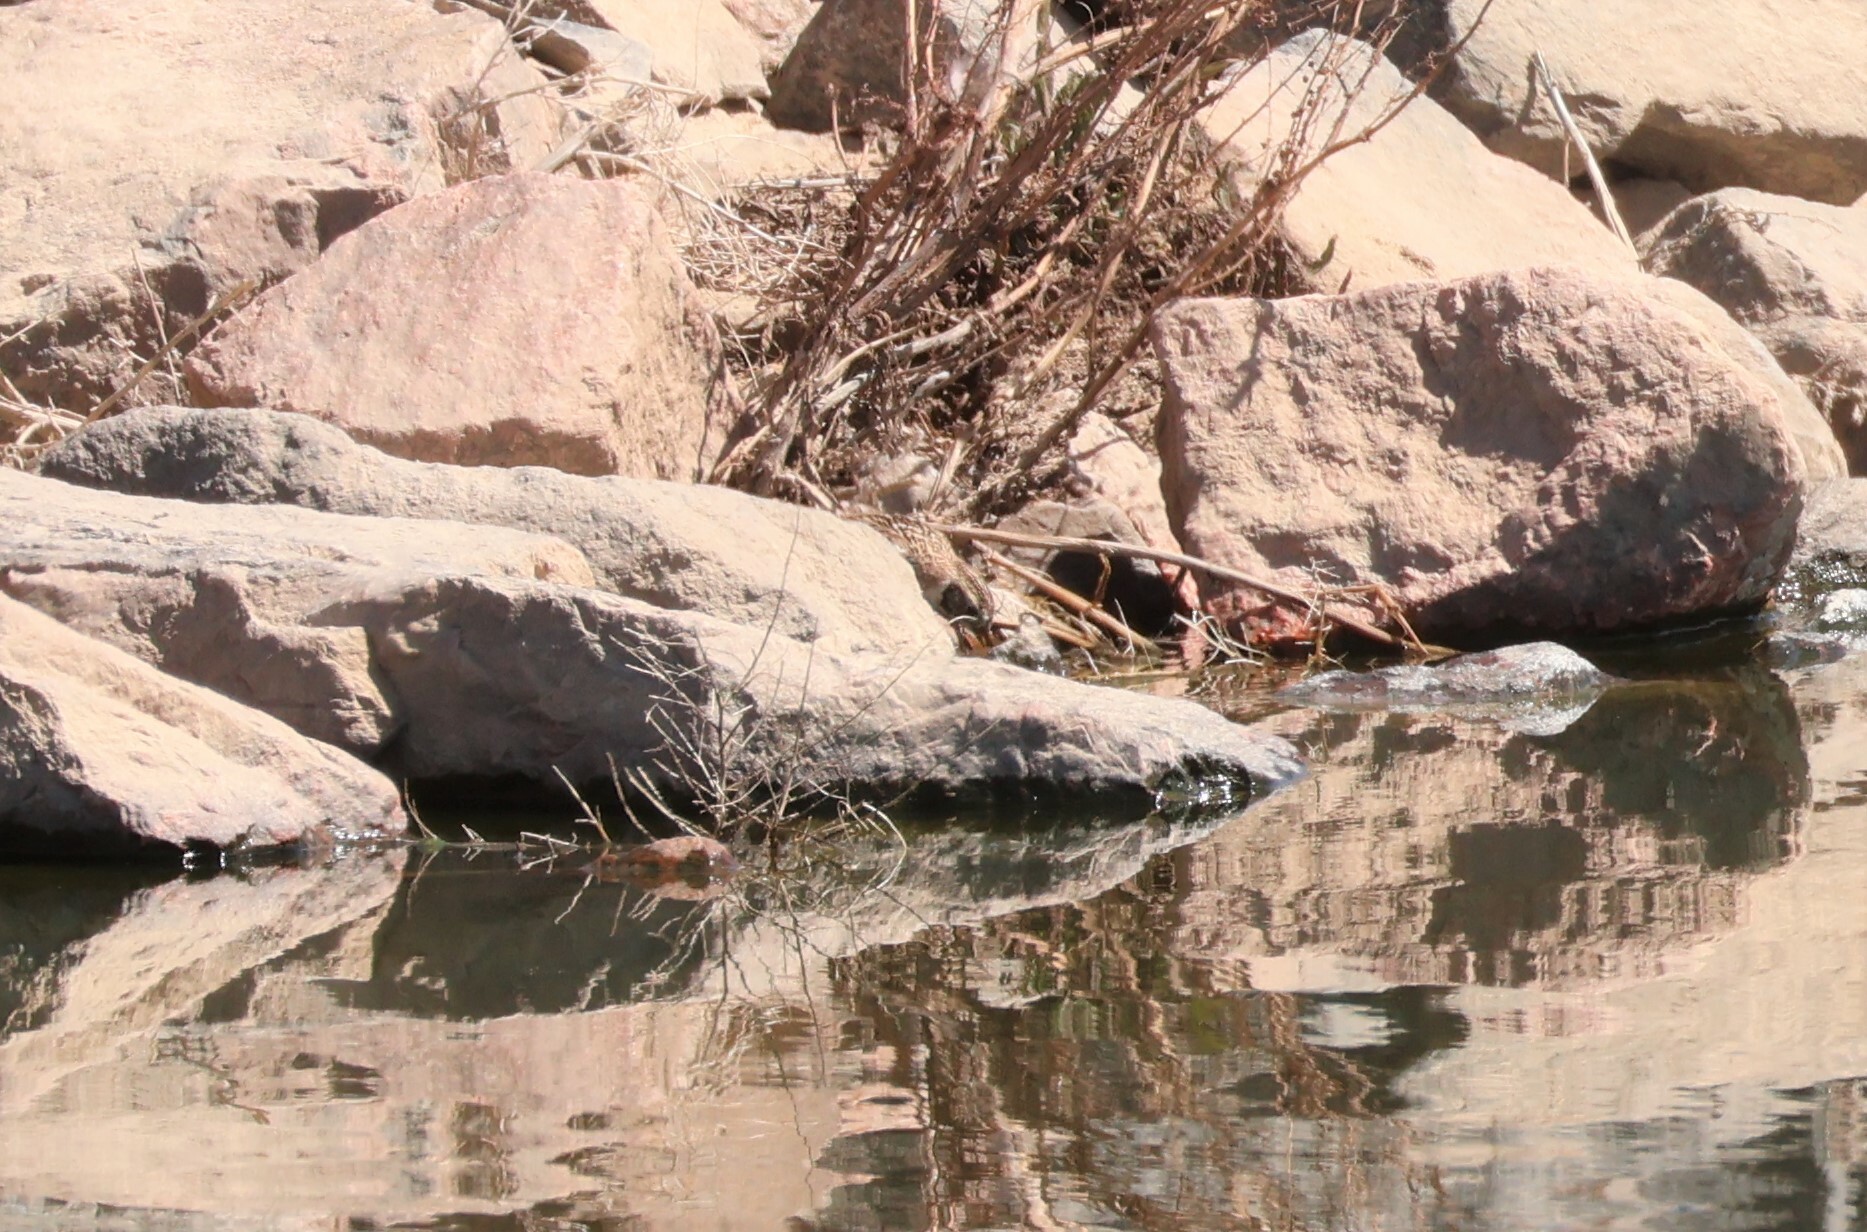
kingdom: Animalia
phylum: Chordata
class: Aves
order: Passeriformes
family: Calcariidae
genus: Calcarius
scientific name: Calcarius lapponicus
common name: Lapland longspur
